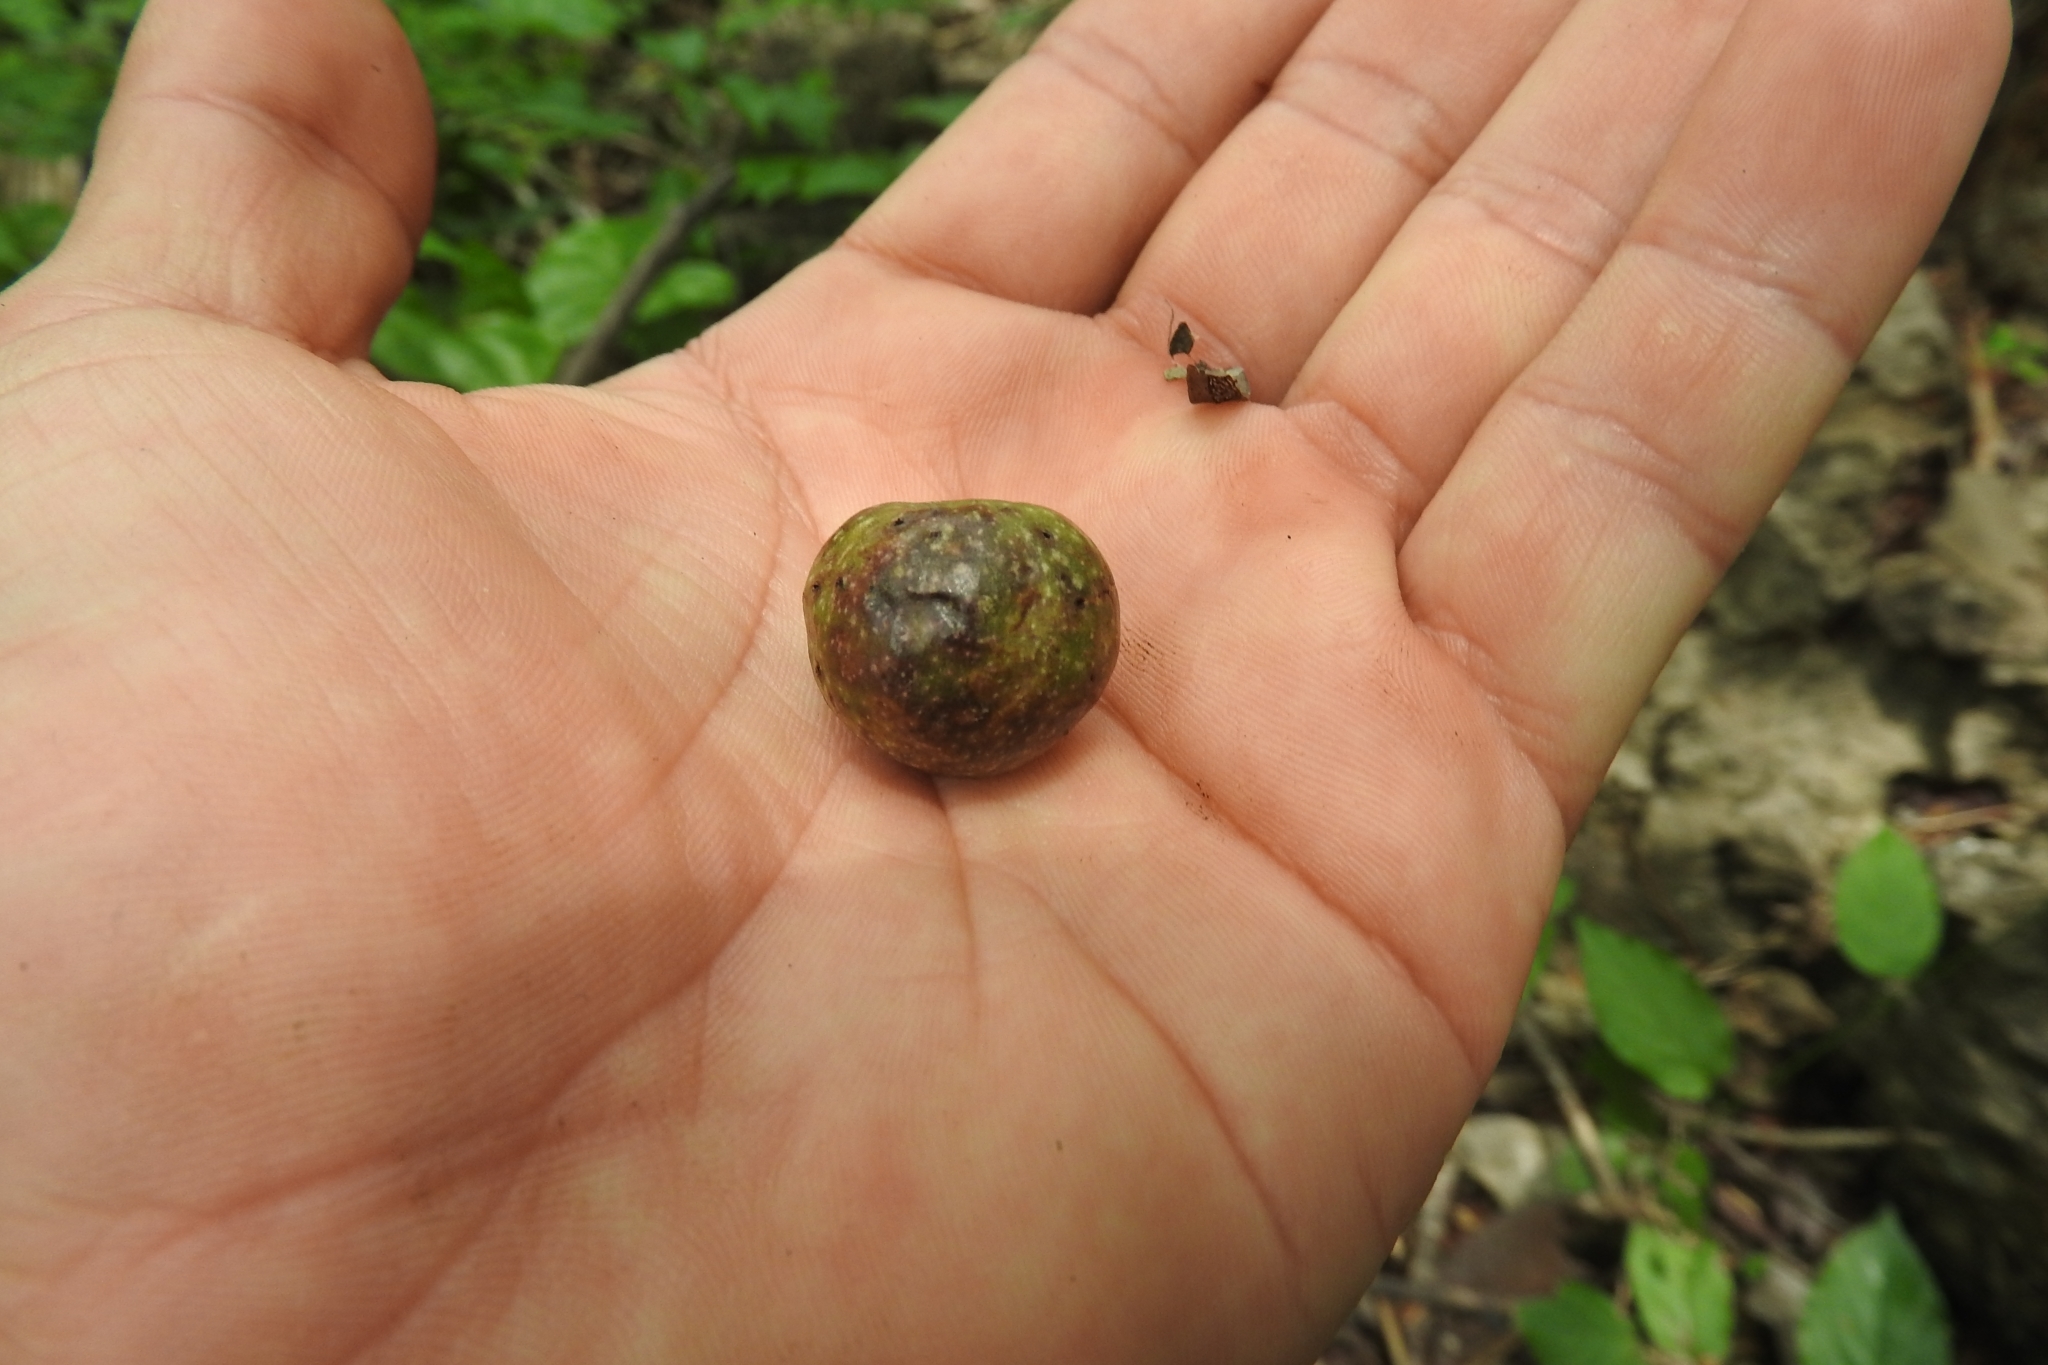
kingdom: Plantae
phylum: Tracheophyta
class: Magnoliopsida
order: Rosales
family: Moraceae
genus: Brosimum
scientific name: Brosimum alicastrum
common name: Breadnut
